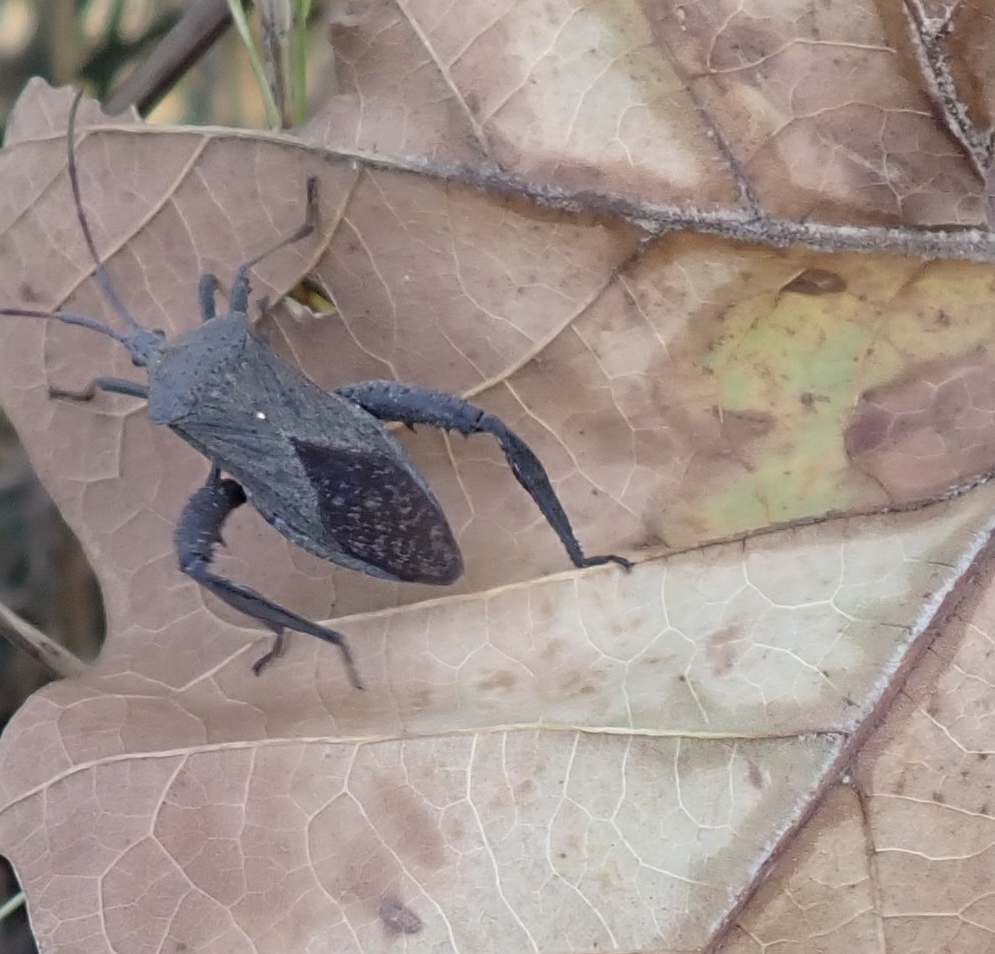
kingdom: Animalia
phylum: Arthropoda
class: Insecta
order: Hemiptera
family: Coreidae
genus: Acanthocephala
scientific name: Acanthocephala femorata
